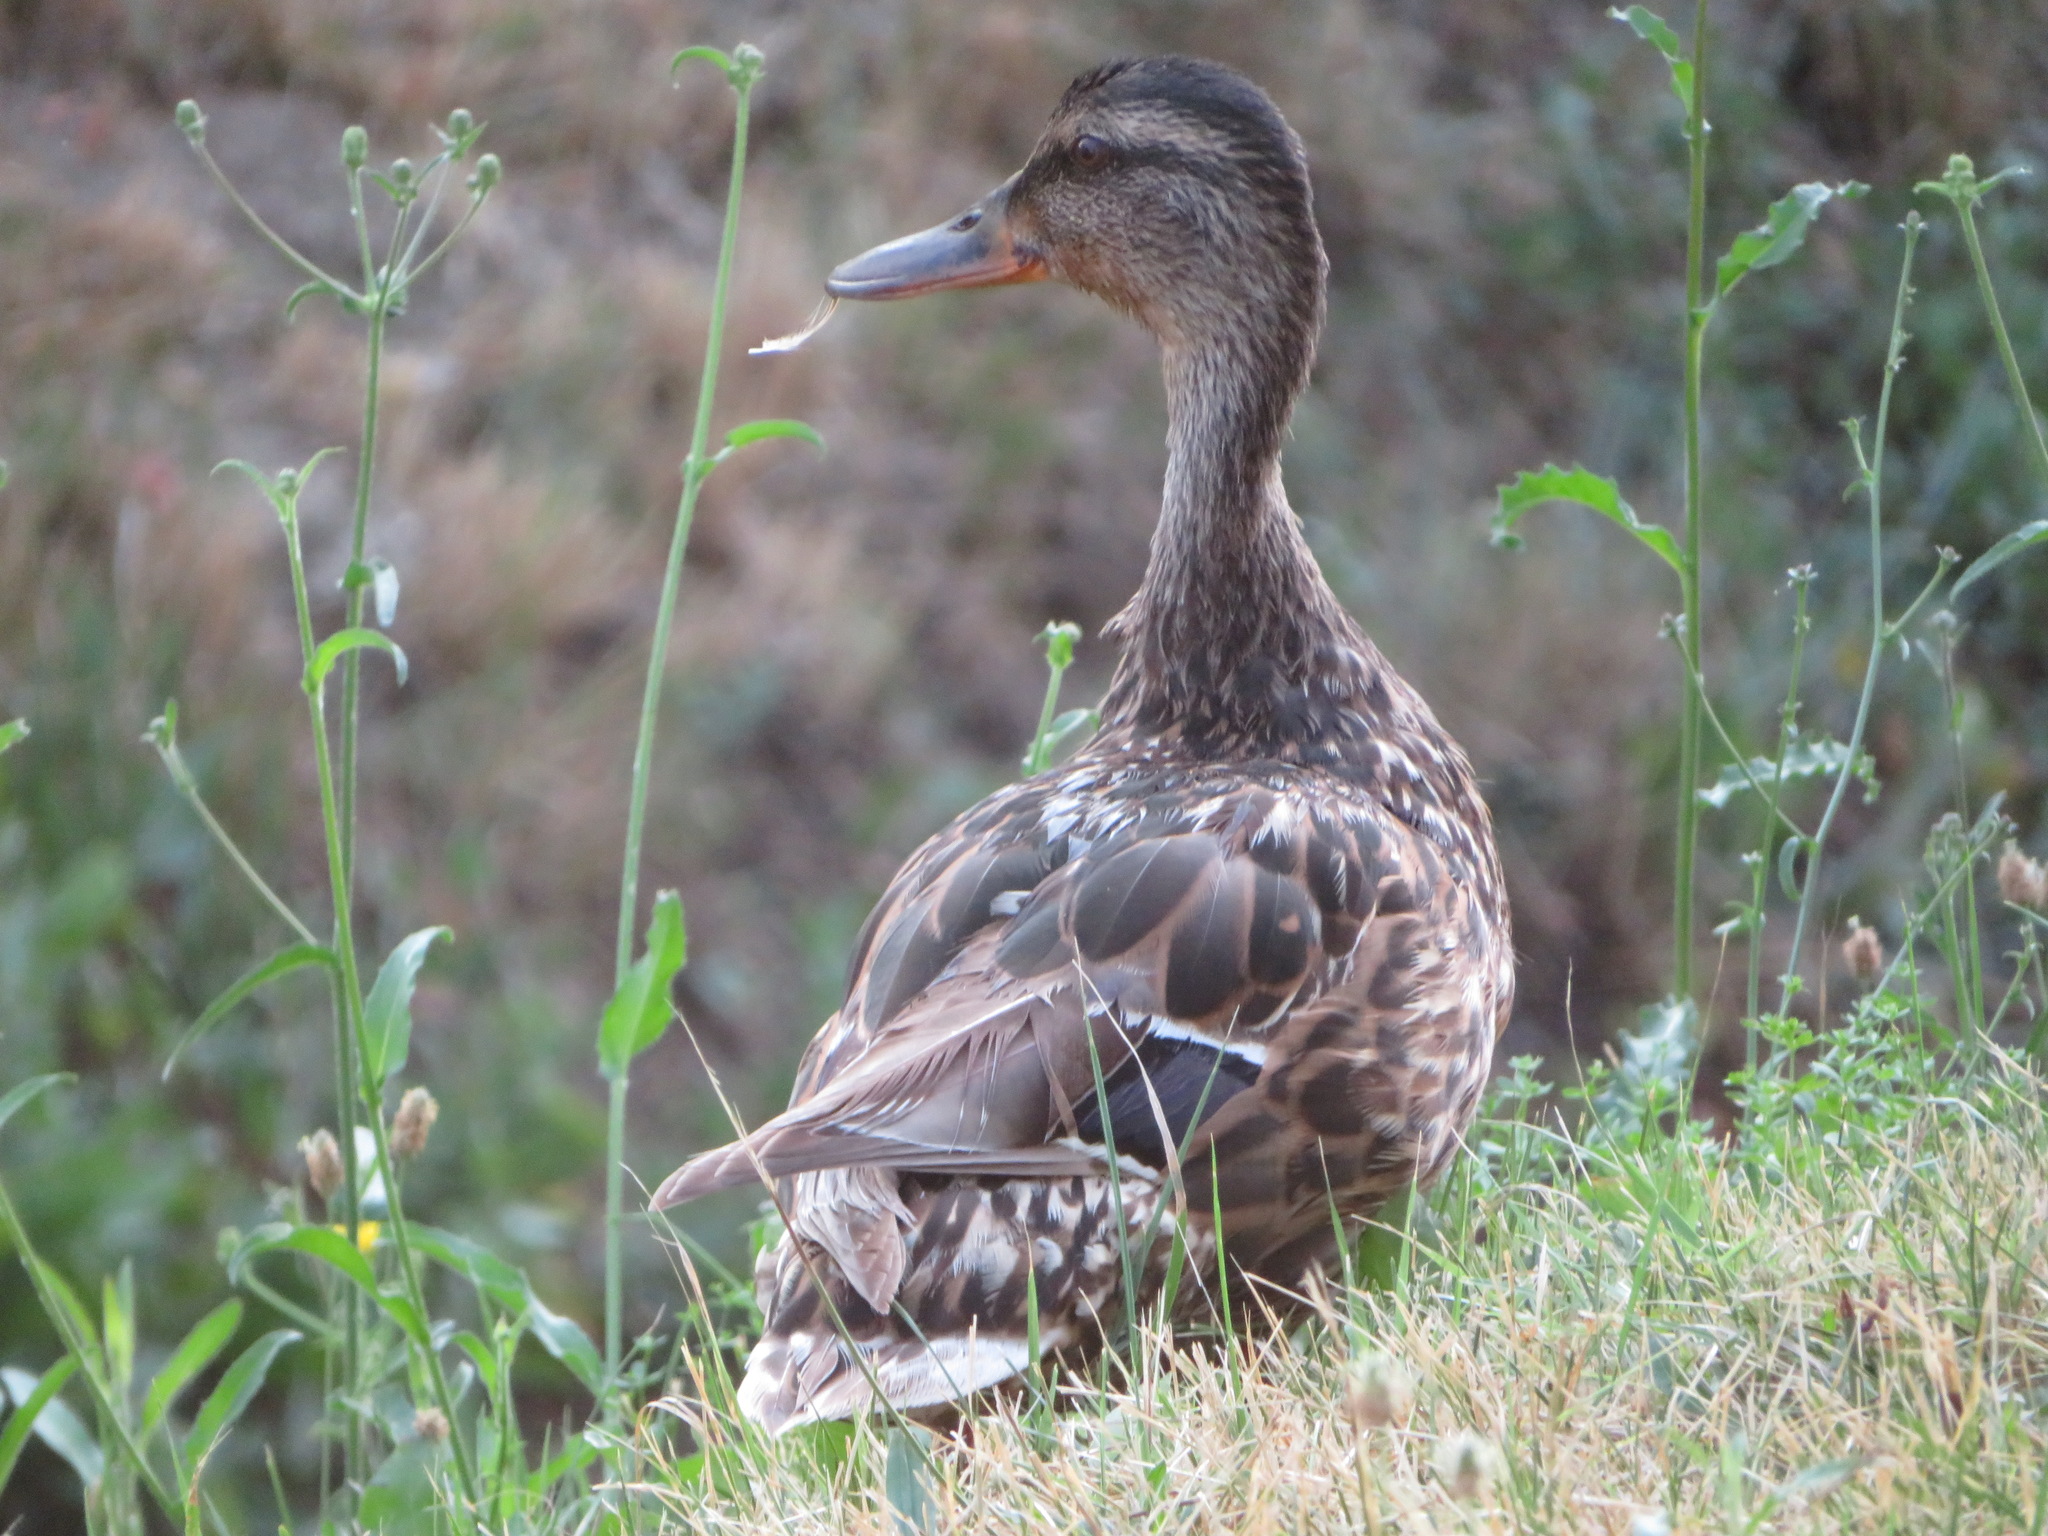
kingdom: Animalia
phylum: Chordata
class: Aves
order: Anseriformes
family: Anatidae
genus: Anas
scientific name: Anas platyrhynchos
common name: Mallard
